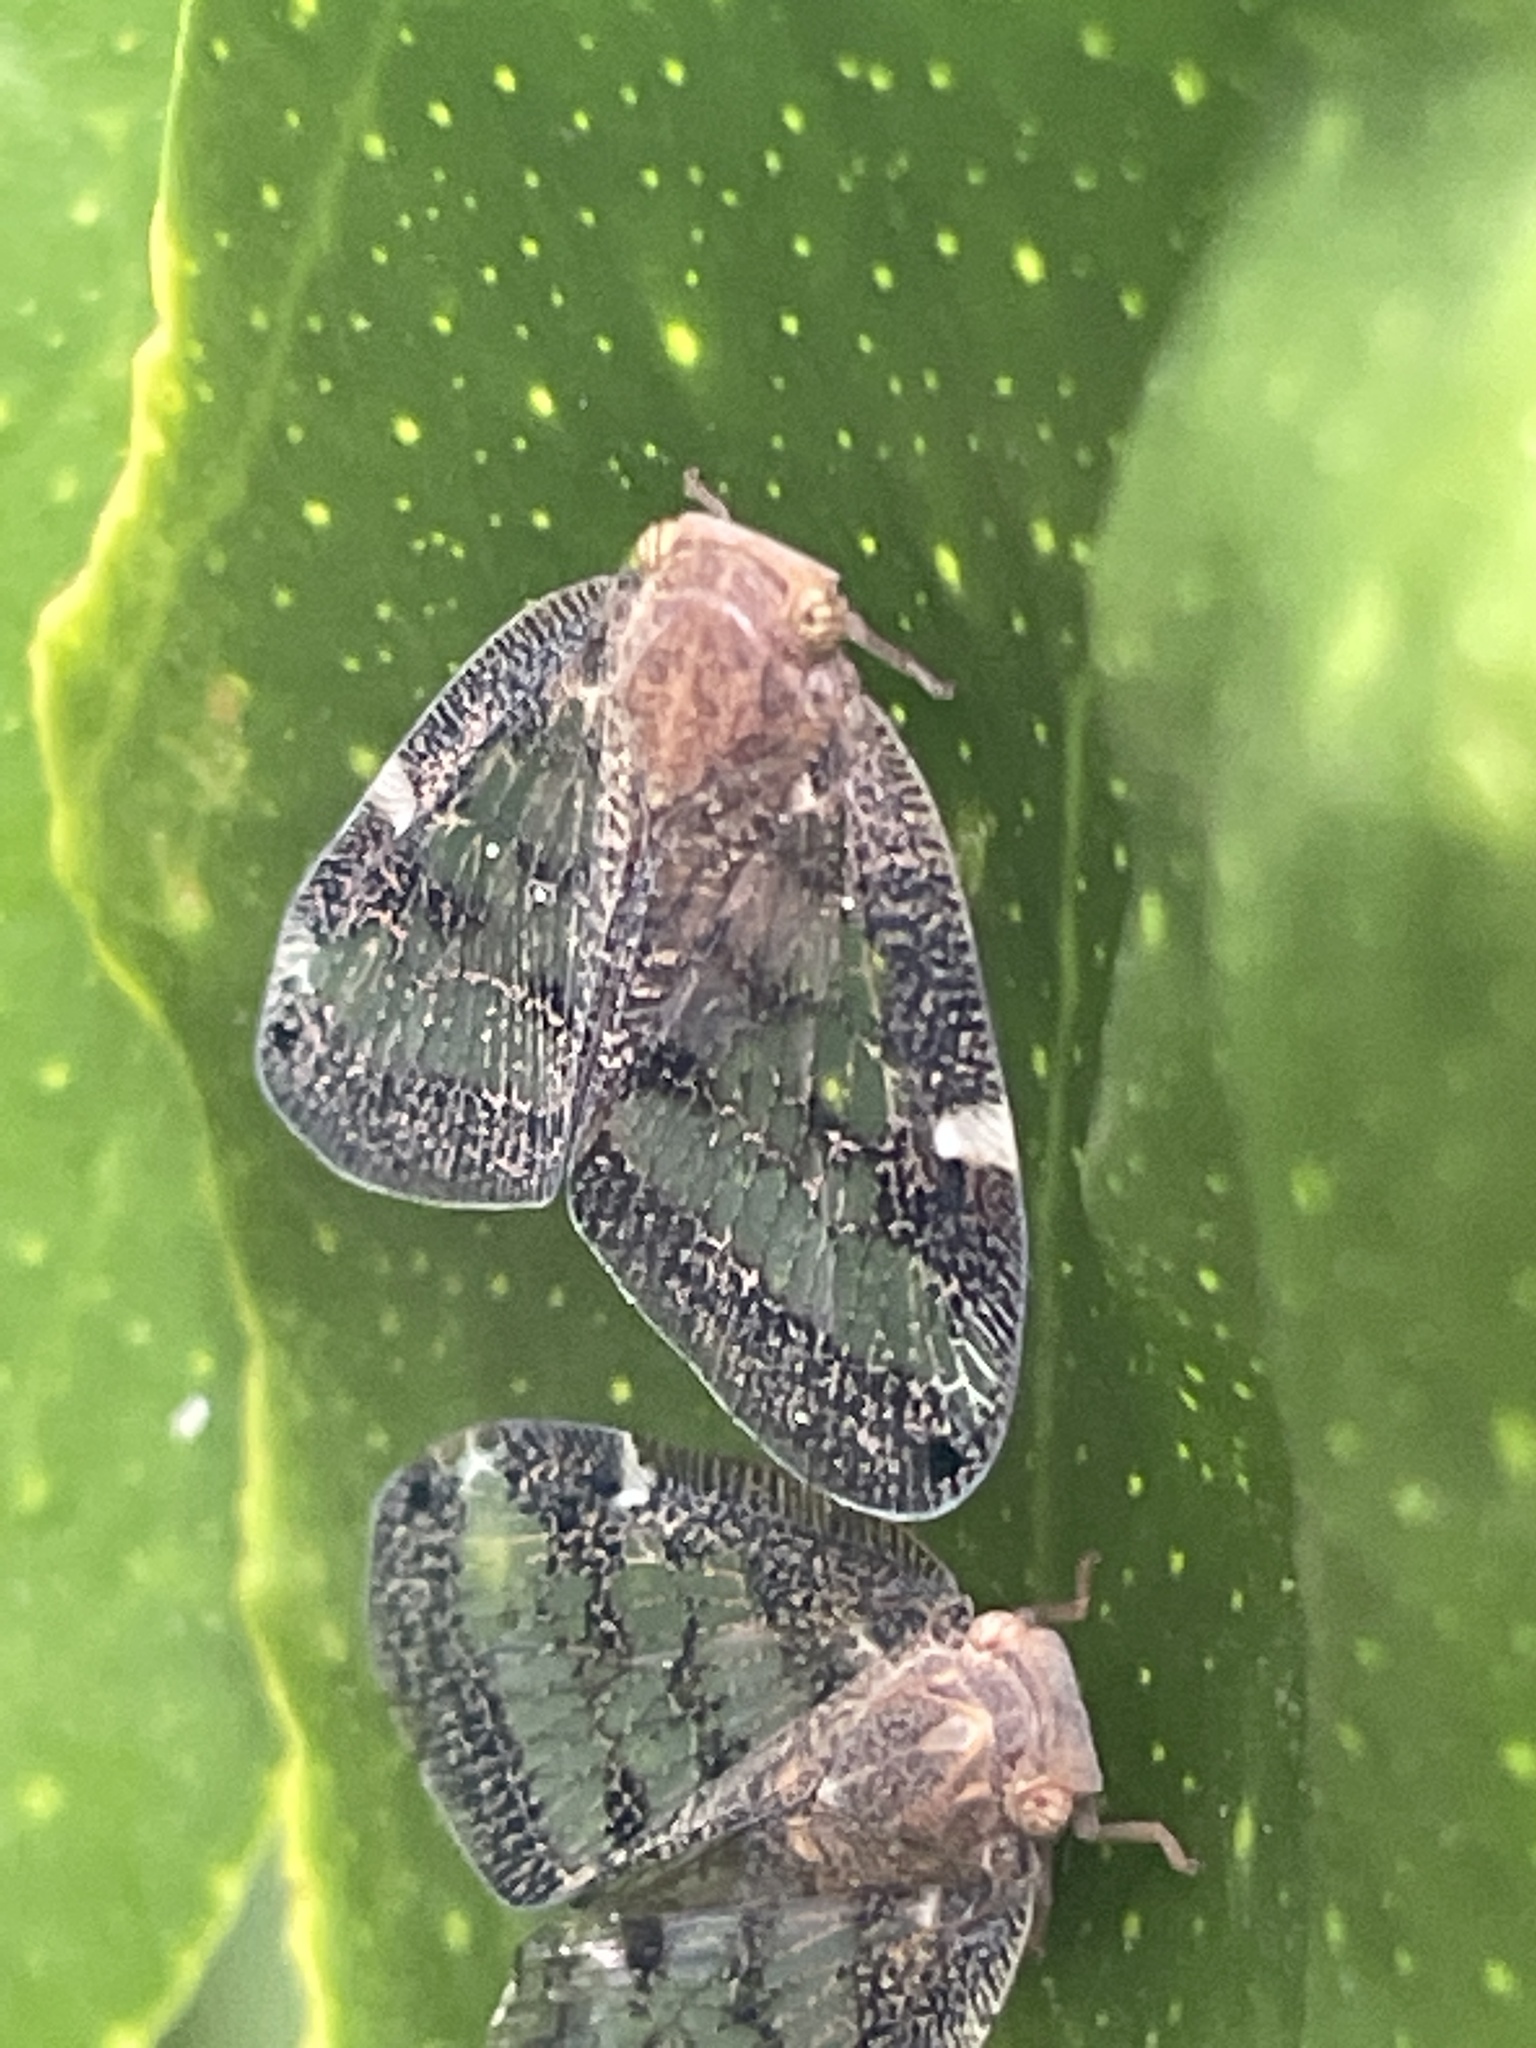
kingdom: Animalia
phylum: Arthropoda
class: Insecta
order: Hemiptera
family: Ricaniidae
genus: Scolypopa
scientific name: Scolypopa australis
